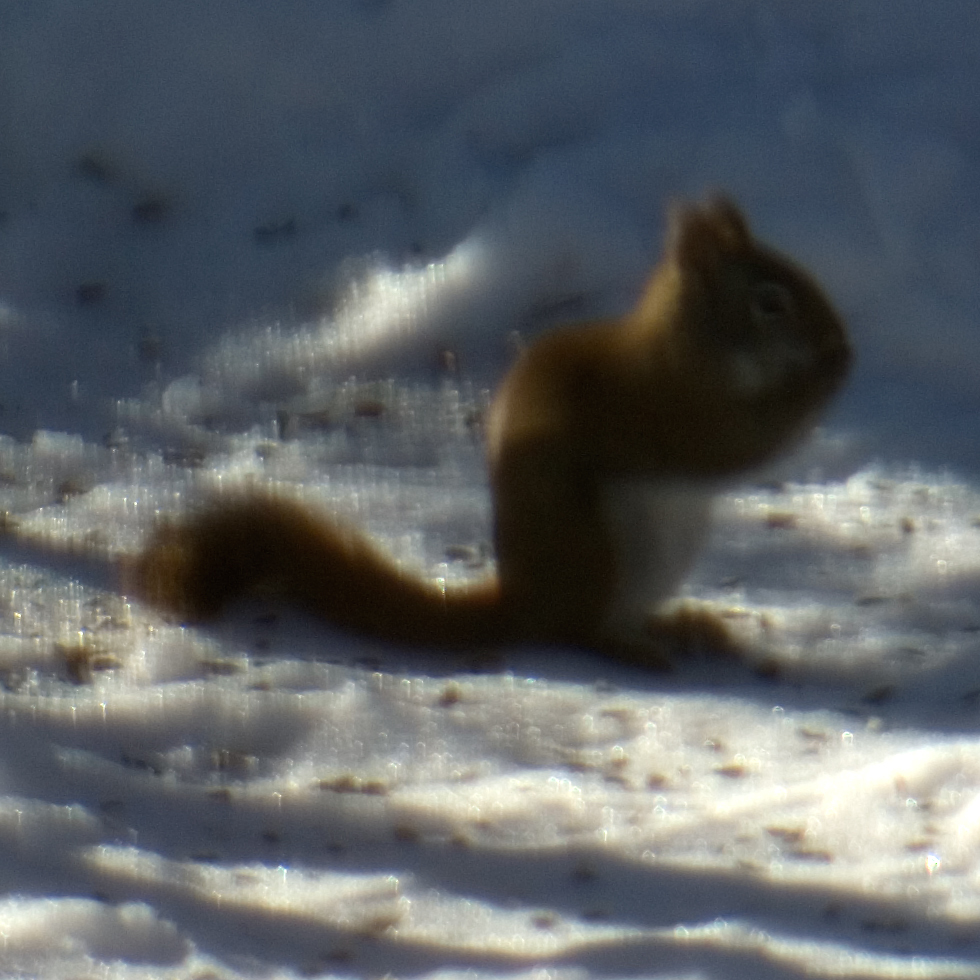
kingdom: Animalia
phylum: Chordata
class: Mammalia
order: Rodentia
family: Sciuridae
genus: Tamiasciurus
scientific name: Tamiasciurus hudsonicus
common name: Red squirrel
